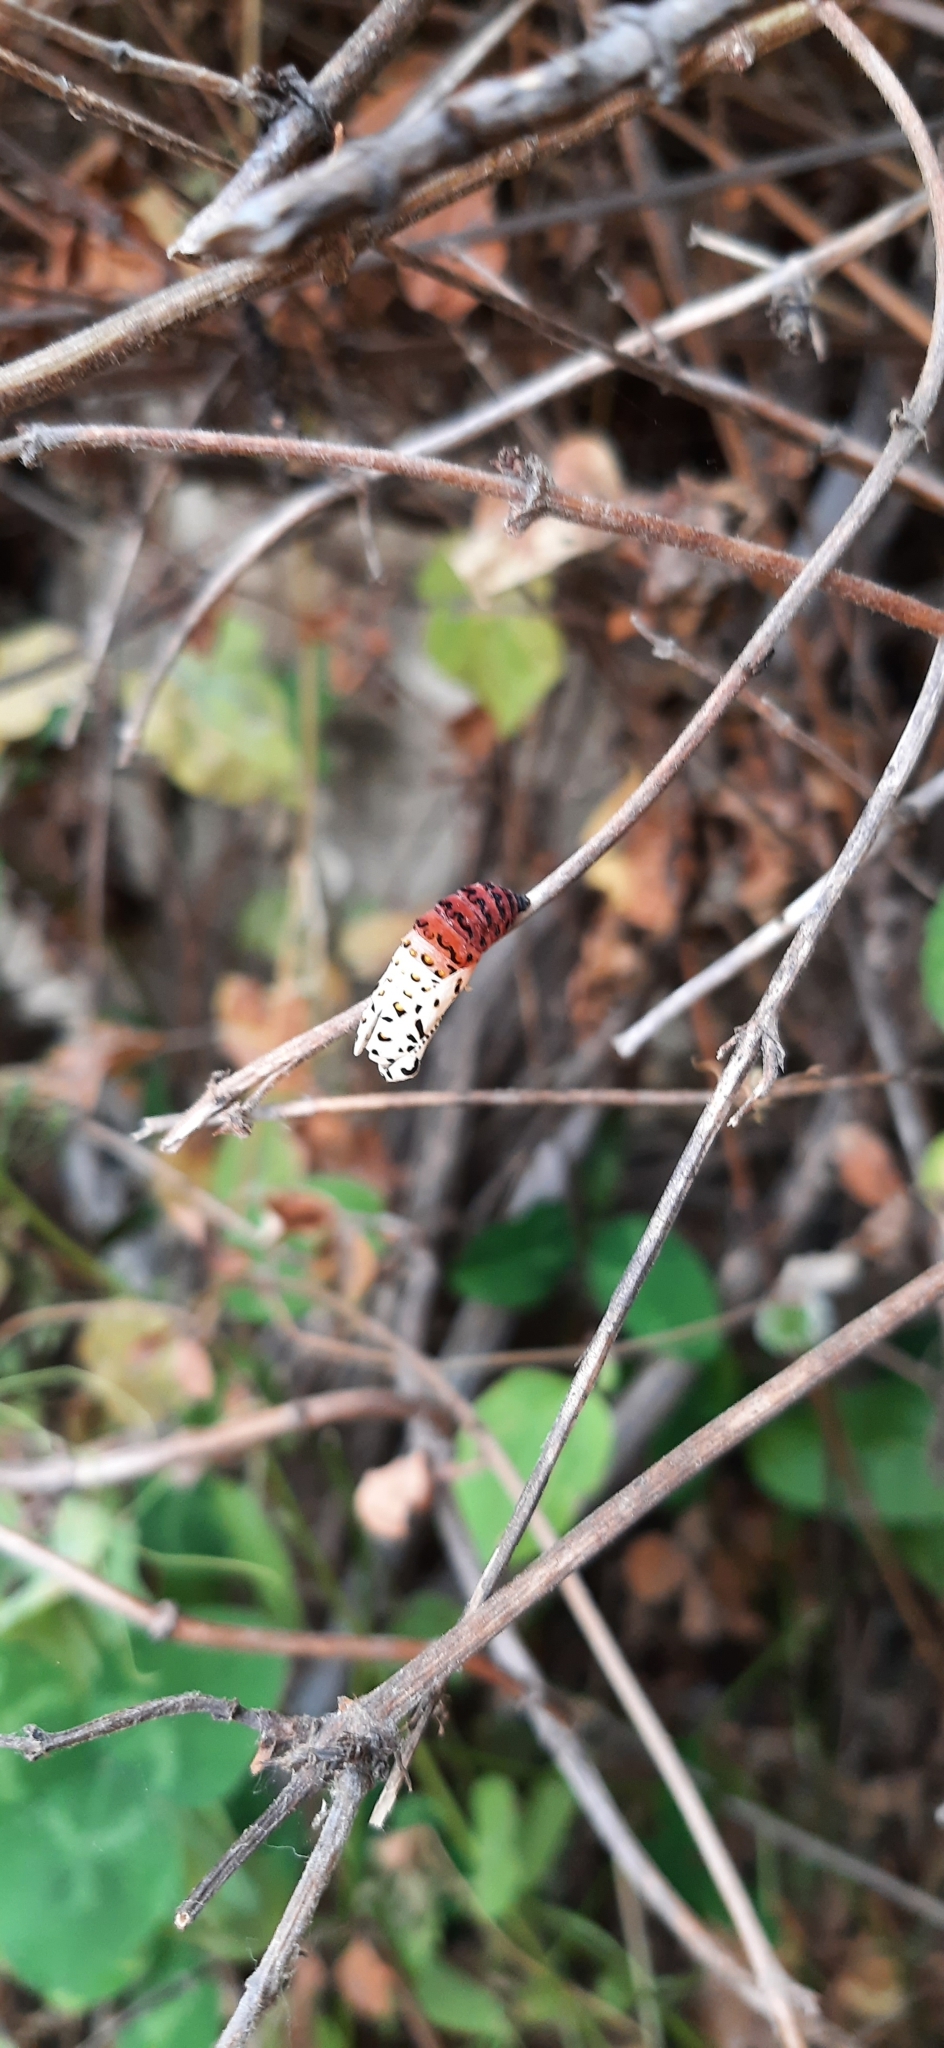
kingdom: Animalia
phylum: Arthropoda
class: Insecta
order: Lepidoptera
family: Nymphalidae
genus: Euphydryas
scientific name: Euphydryas aurinia
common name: Marsh fritillary
